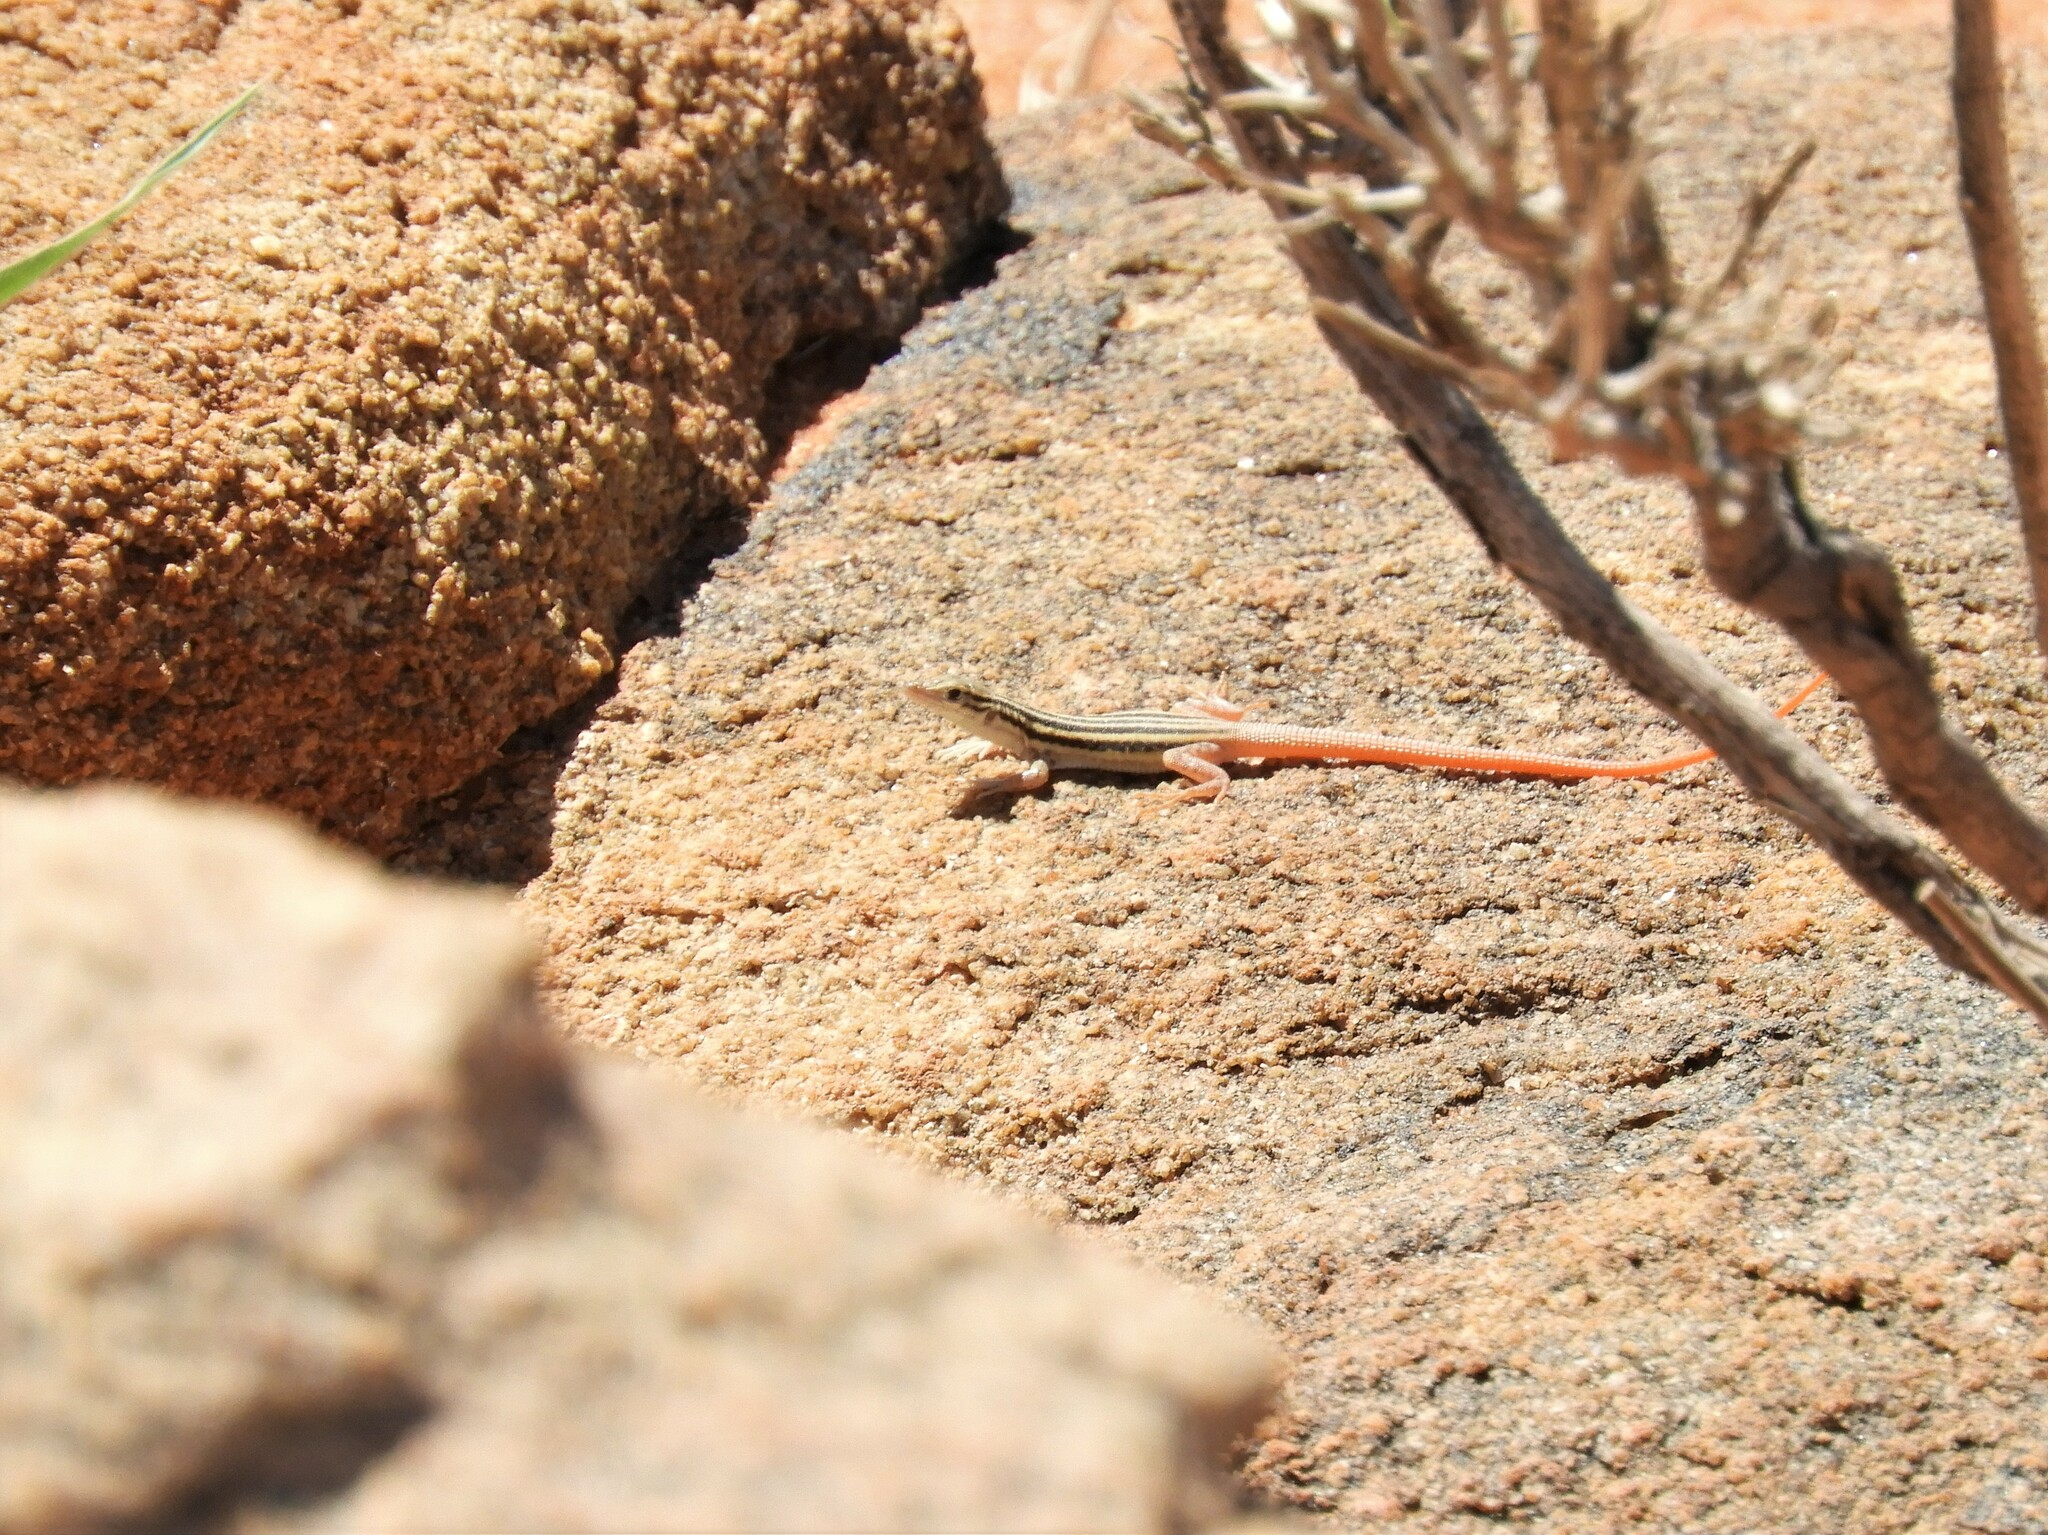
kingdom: Animalia
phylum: Chordata
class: Squamata
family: Lacertidae
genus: Pedioplanis
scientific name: Pedioplanis namaquensis
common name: Namaqua sand lizard
